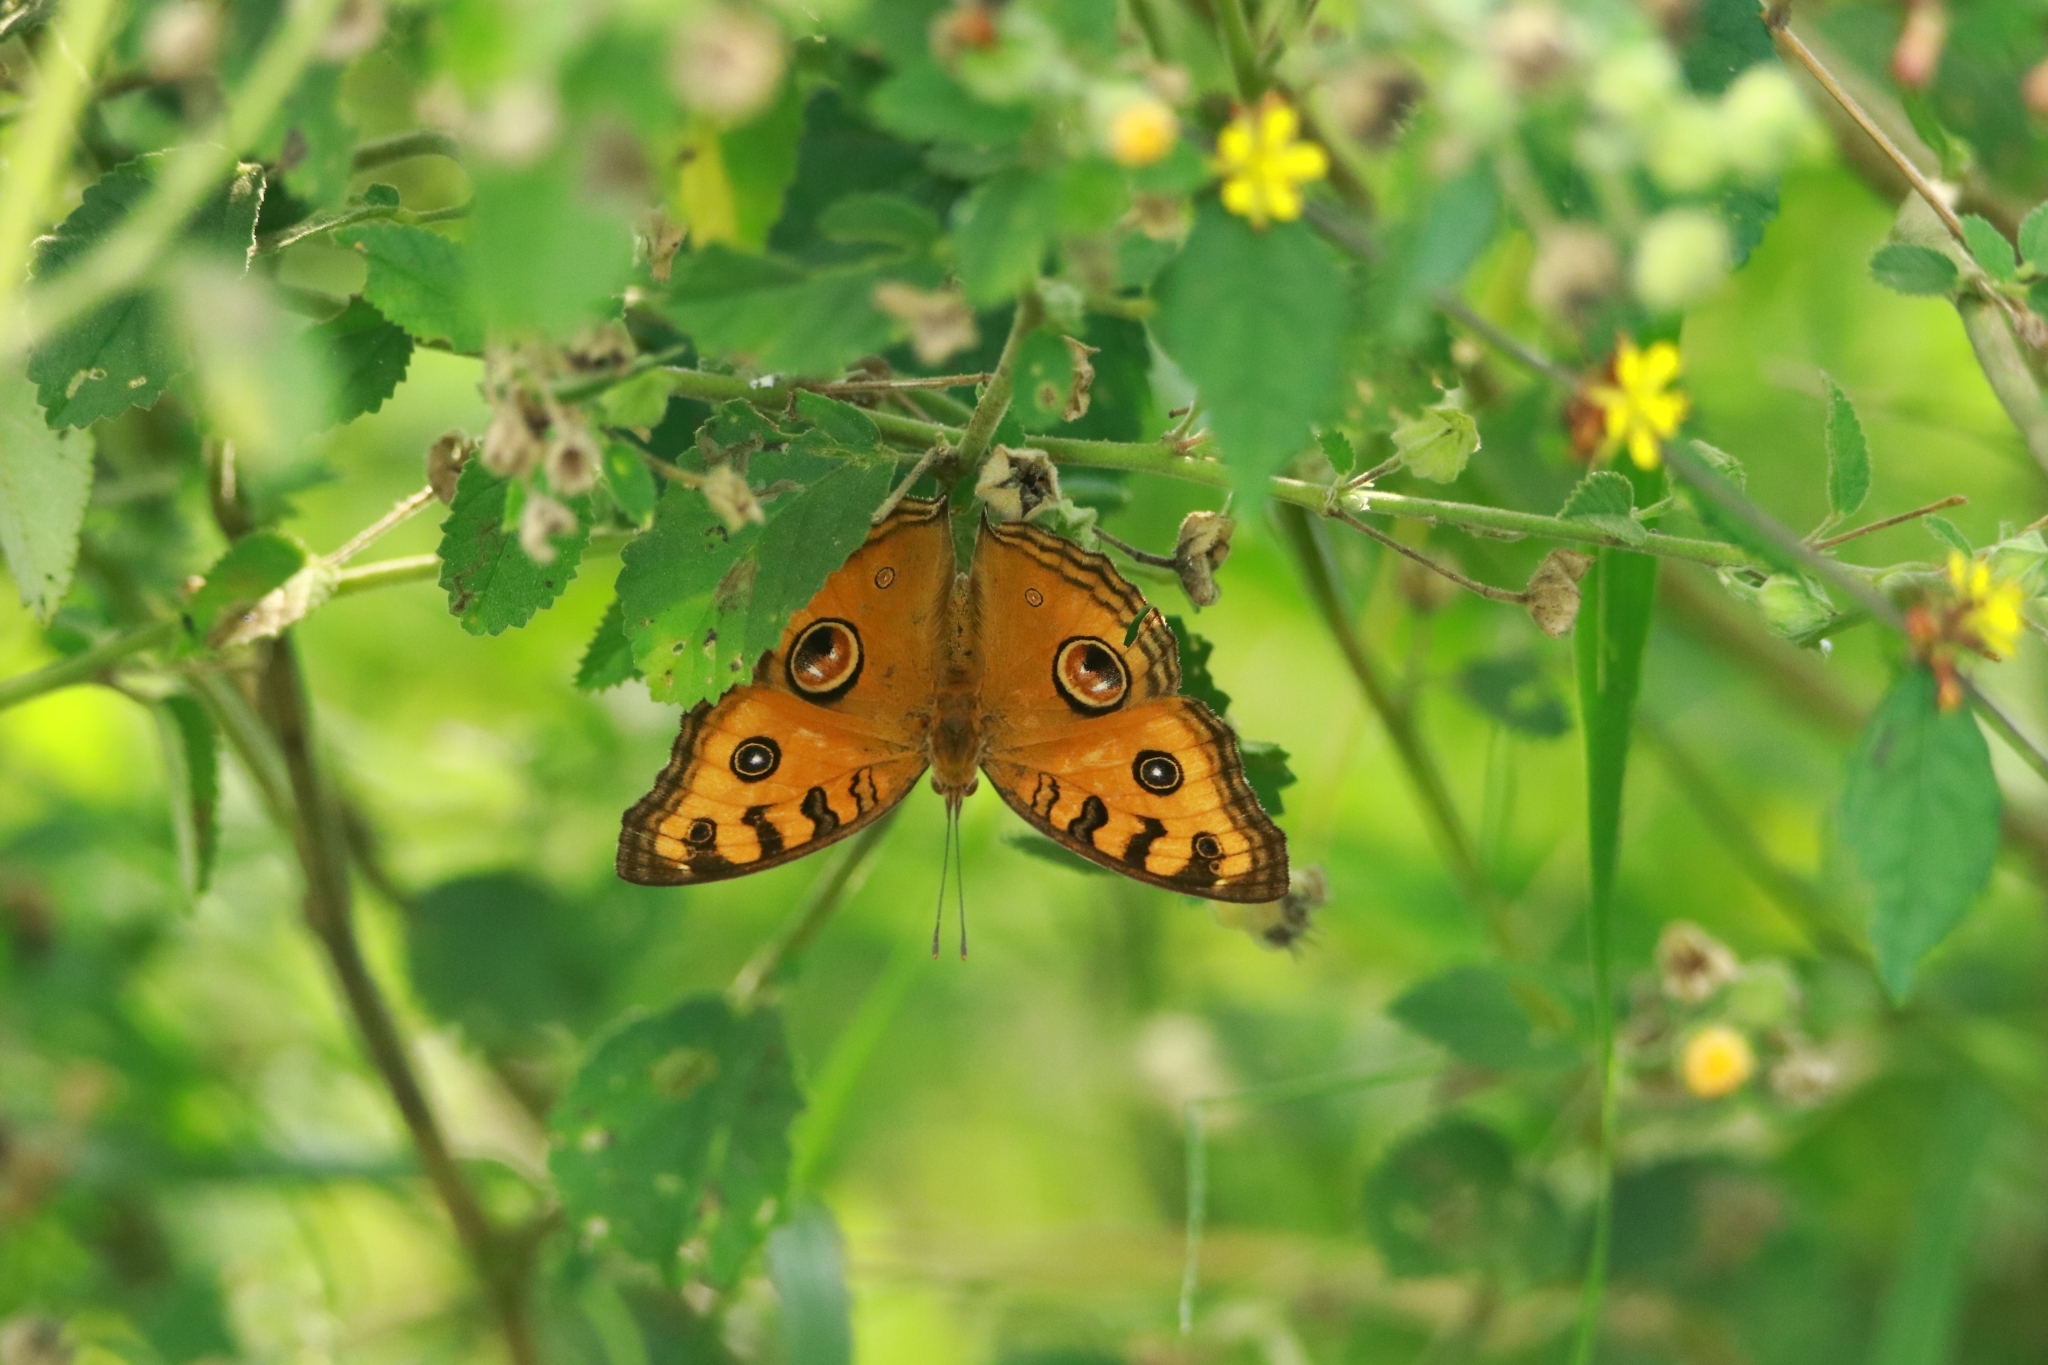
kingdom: Animalia
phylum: Arthropoda
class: Insecta
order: Lepidoptera
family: Nymphalidae
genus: Junonia
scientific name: Junonia almana
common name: Peacock pansy
